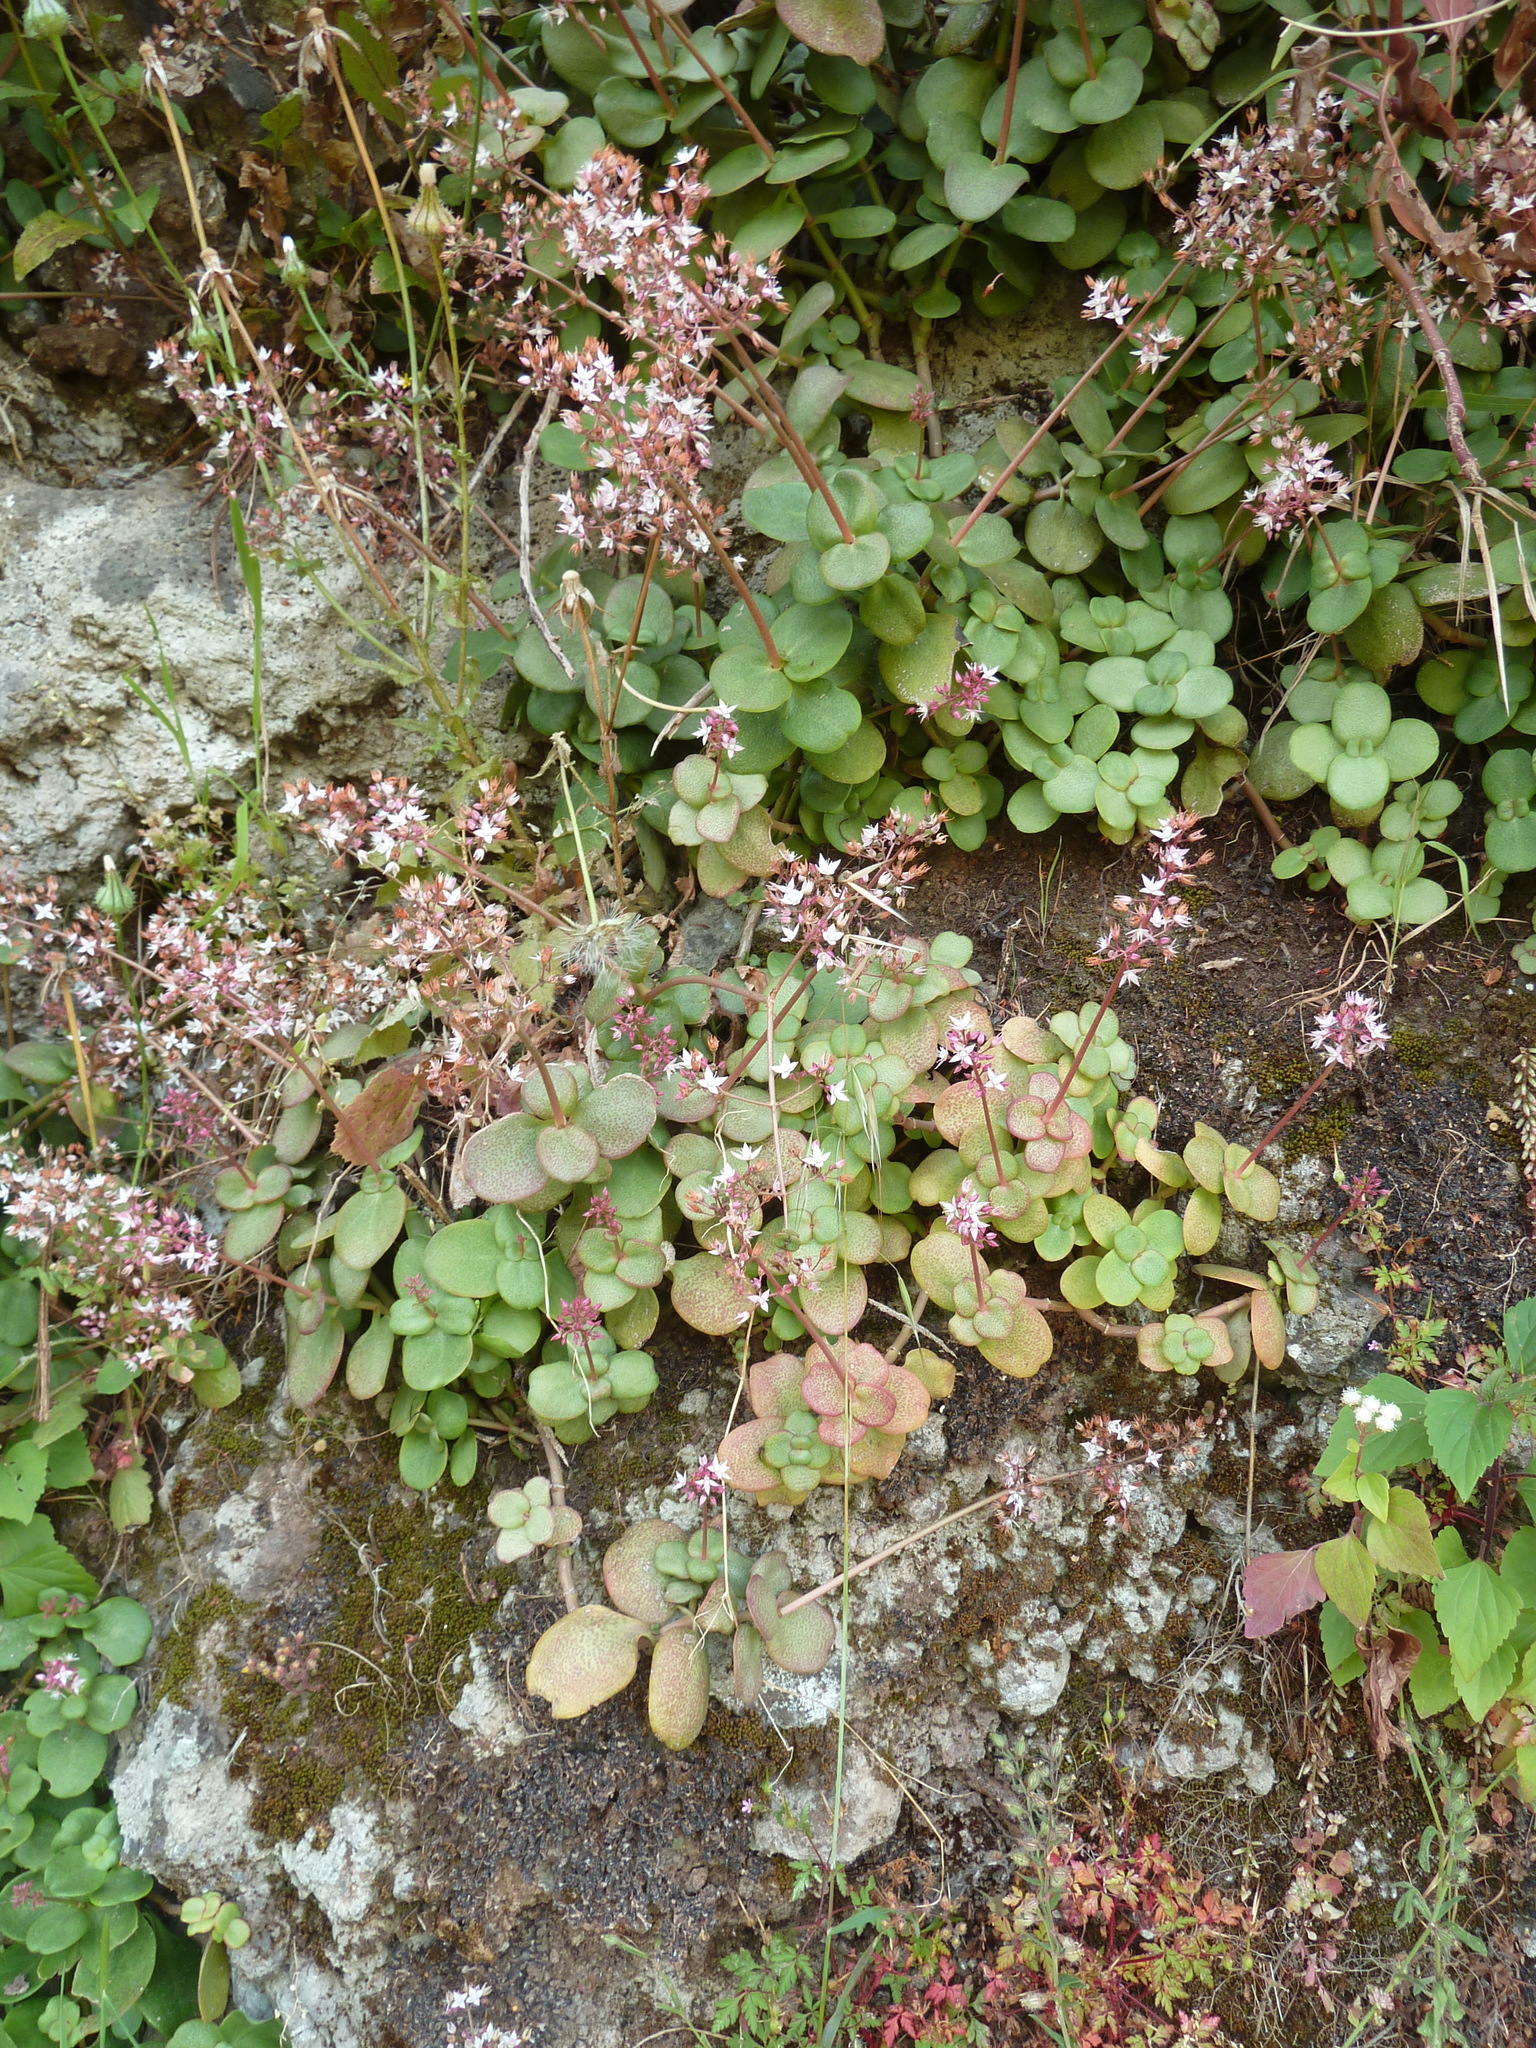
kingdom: Plantae
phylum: Tracheophyta
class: Magnoliopsida
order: Saxifragales
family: Crassulaceae
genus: Crassula
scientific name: Crassula multicava
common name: Cape province pygmyweed
